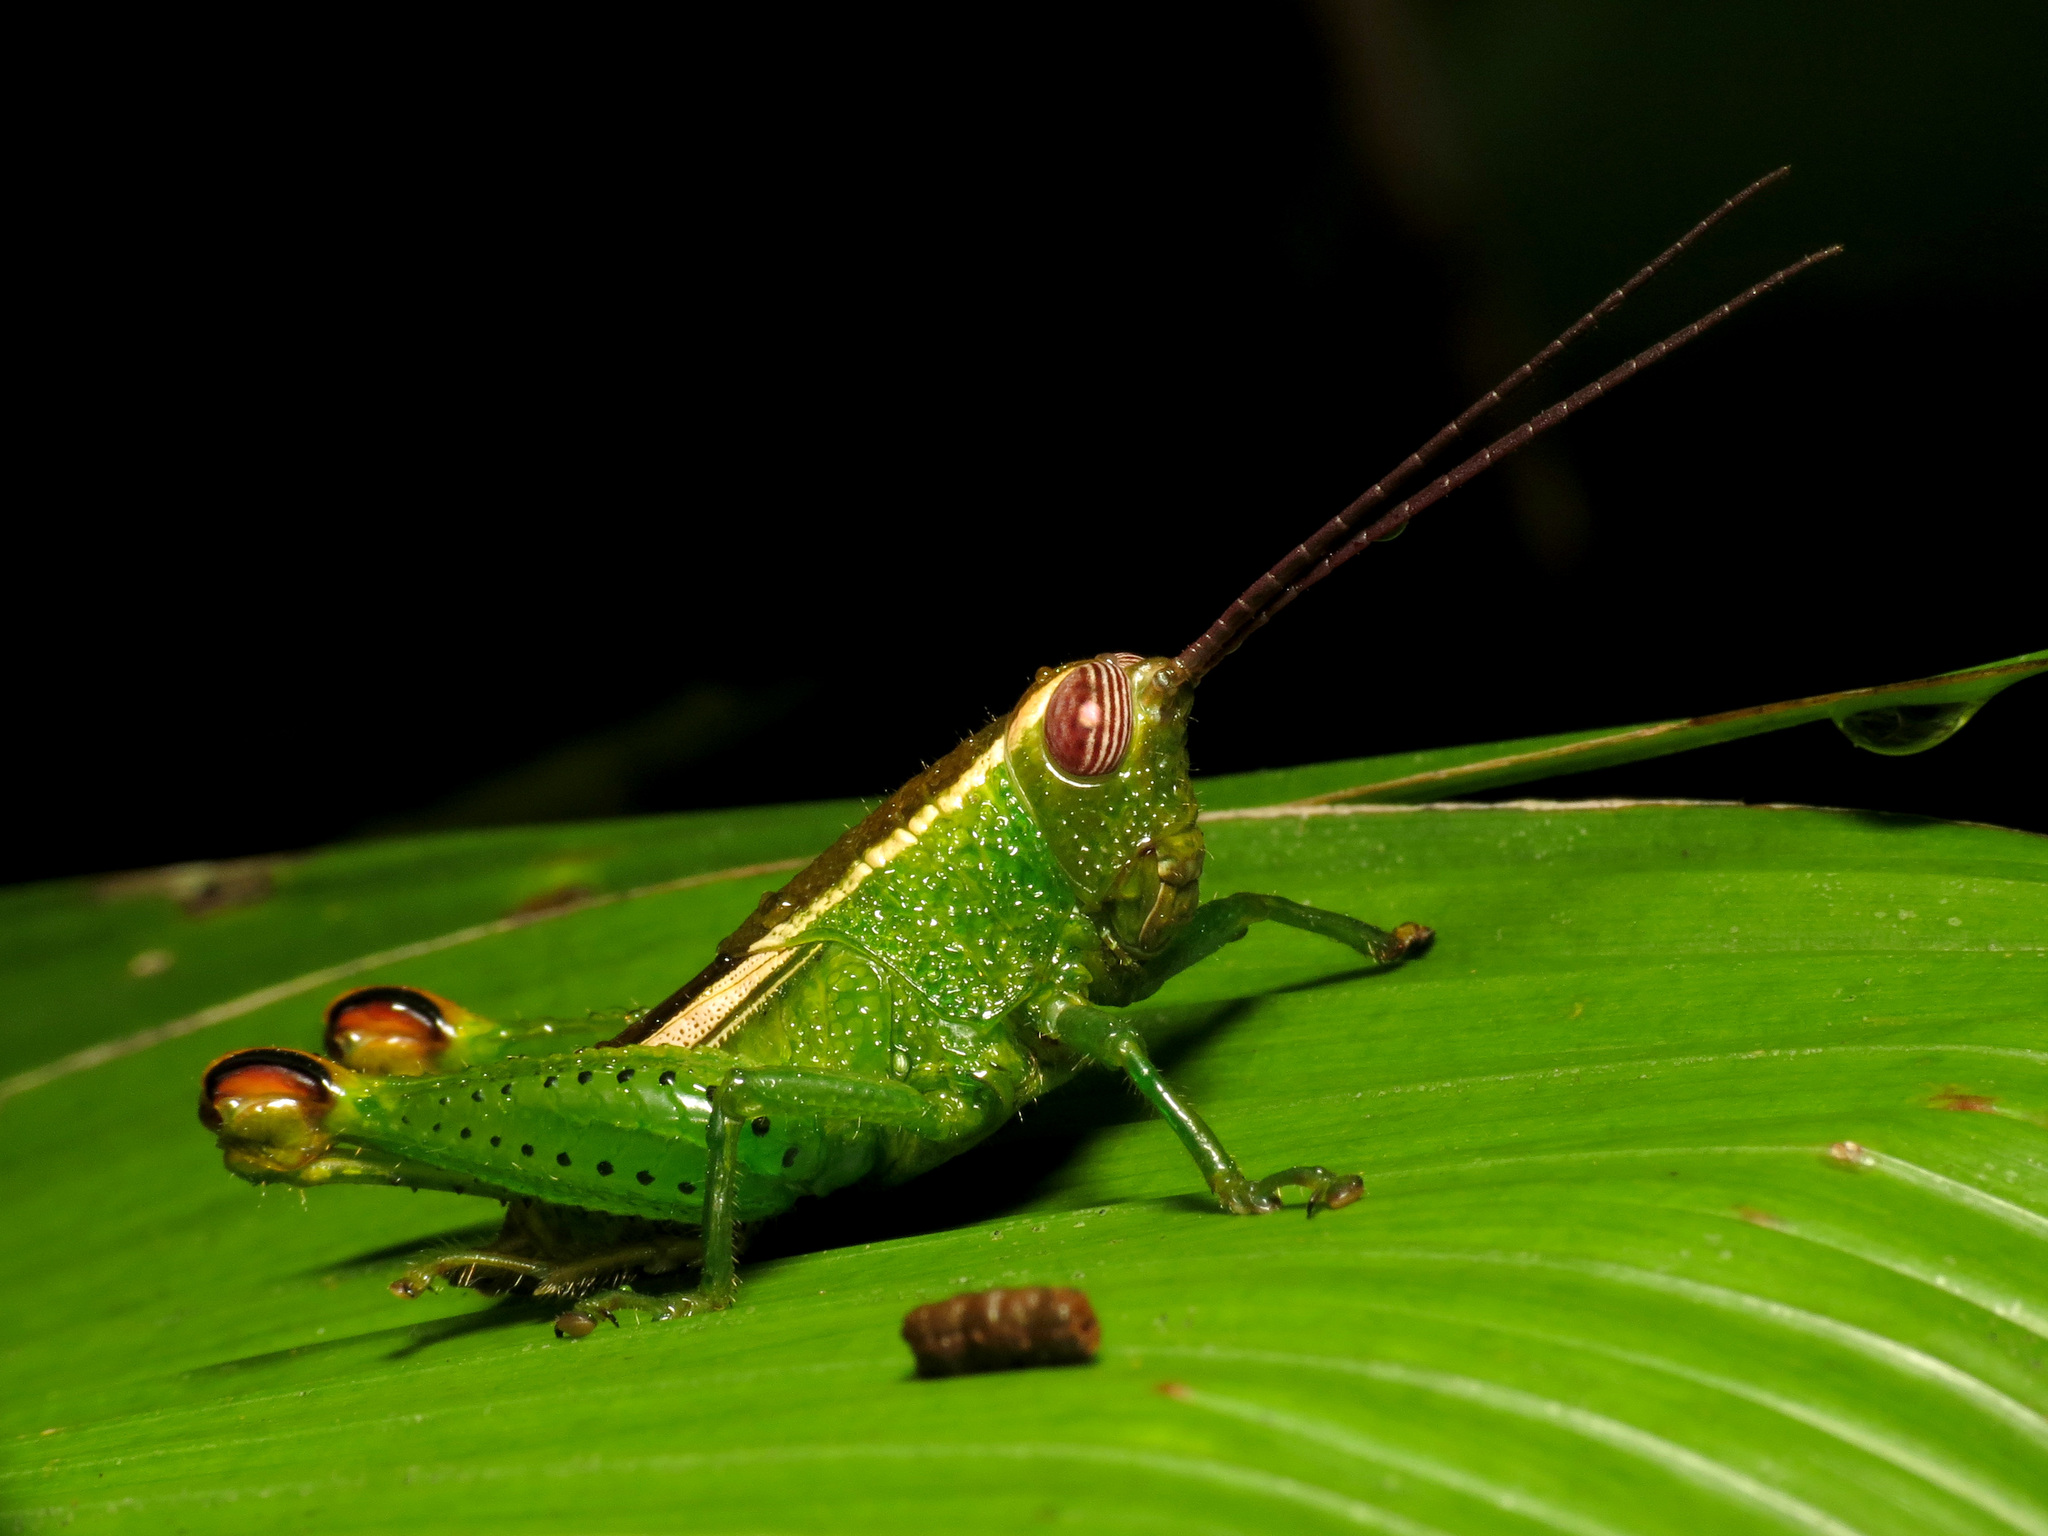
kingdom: Animalia
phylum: Arthropoda
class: Insecta
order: Orthoptera
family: Romaleidae
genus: Caenolampis
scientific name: Caenolampis osae
